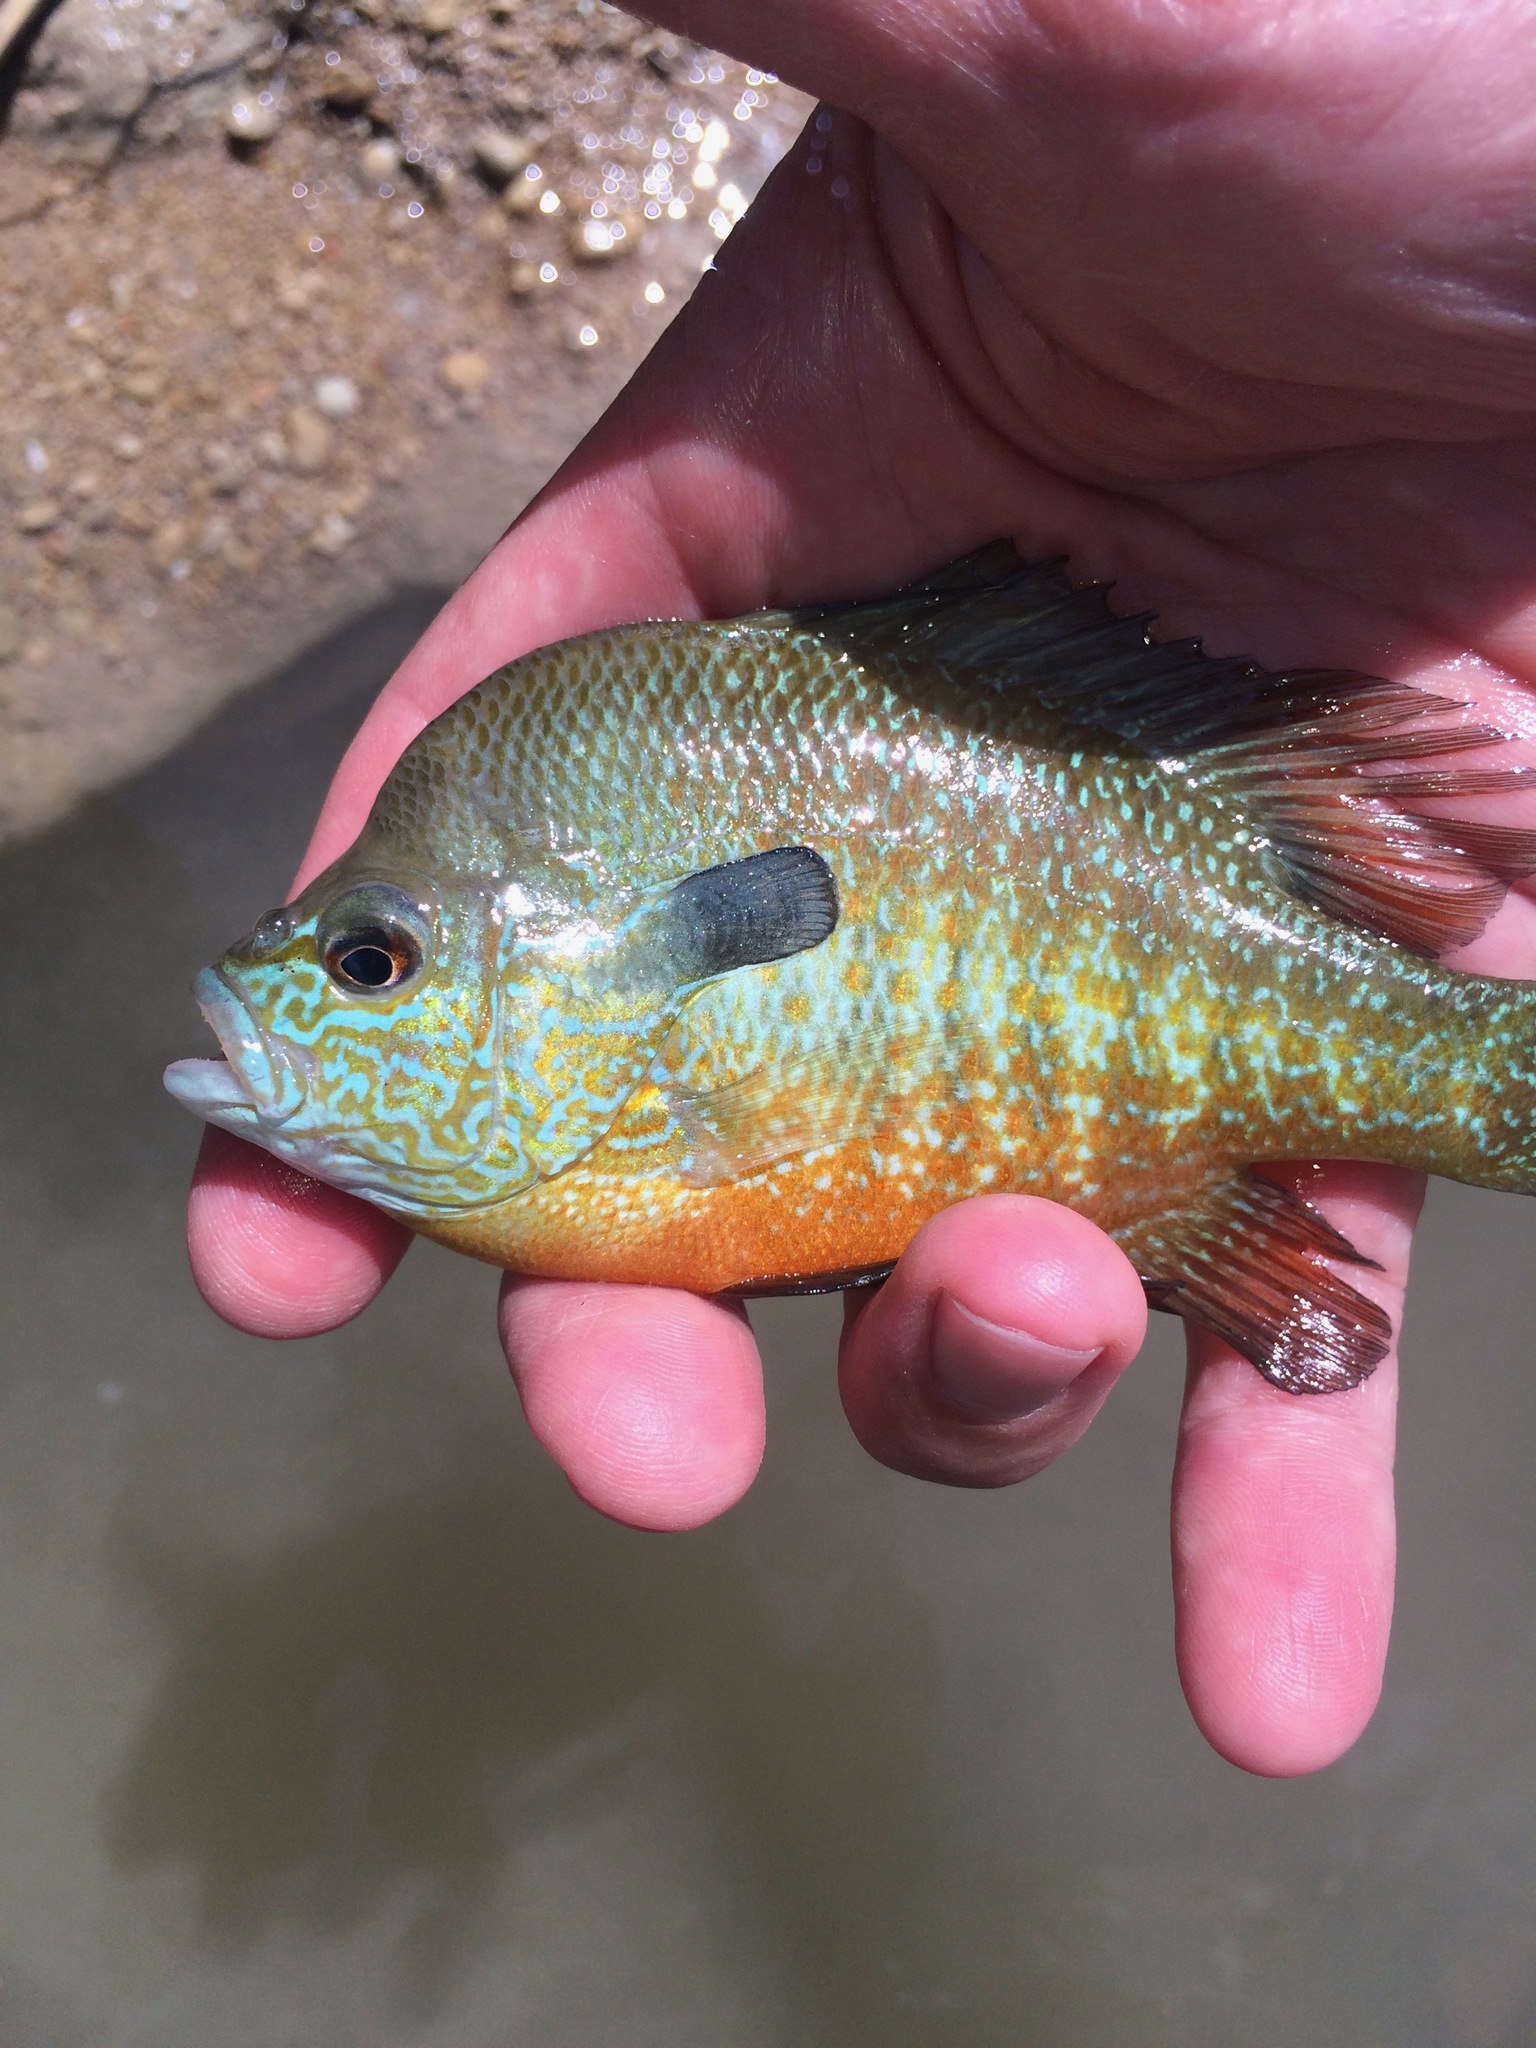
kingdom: Animalia
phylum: Chordata
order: Perciformes
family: Centrarchidae
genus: Lepomis
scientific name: Lepomis megalotis
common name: Longear sunfish
